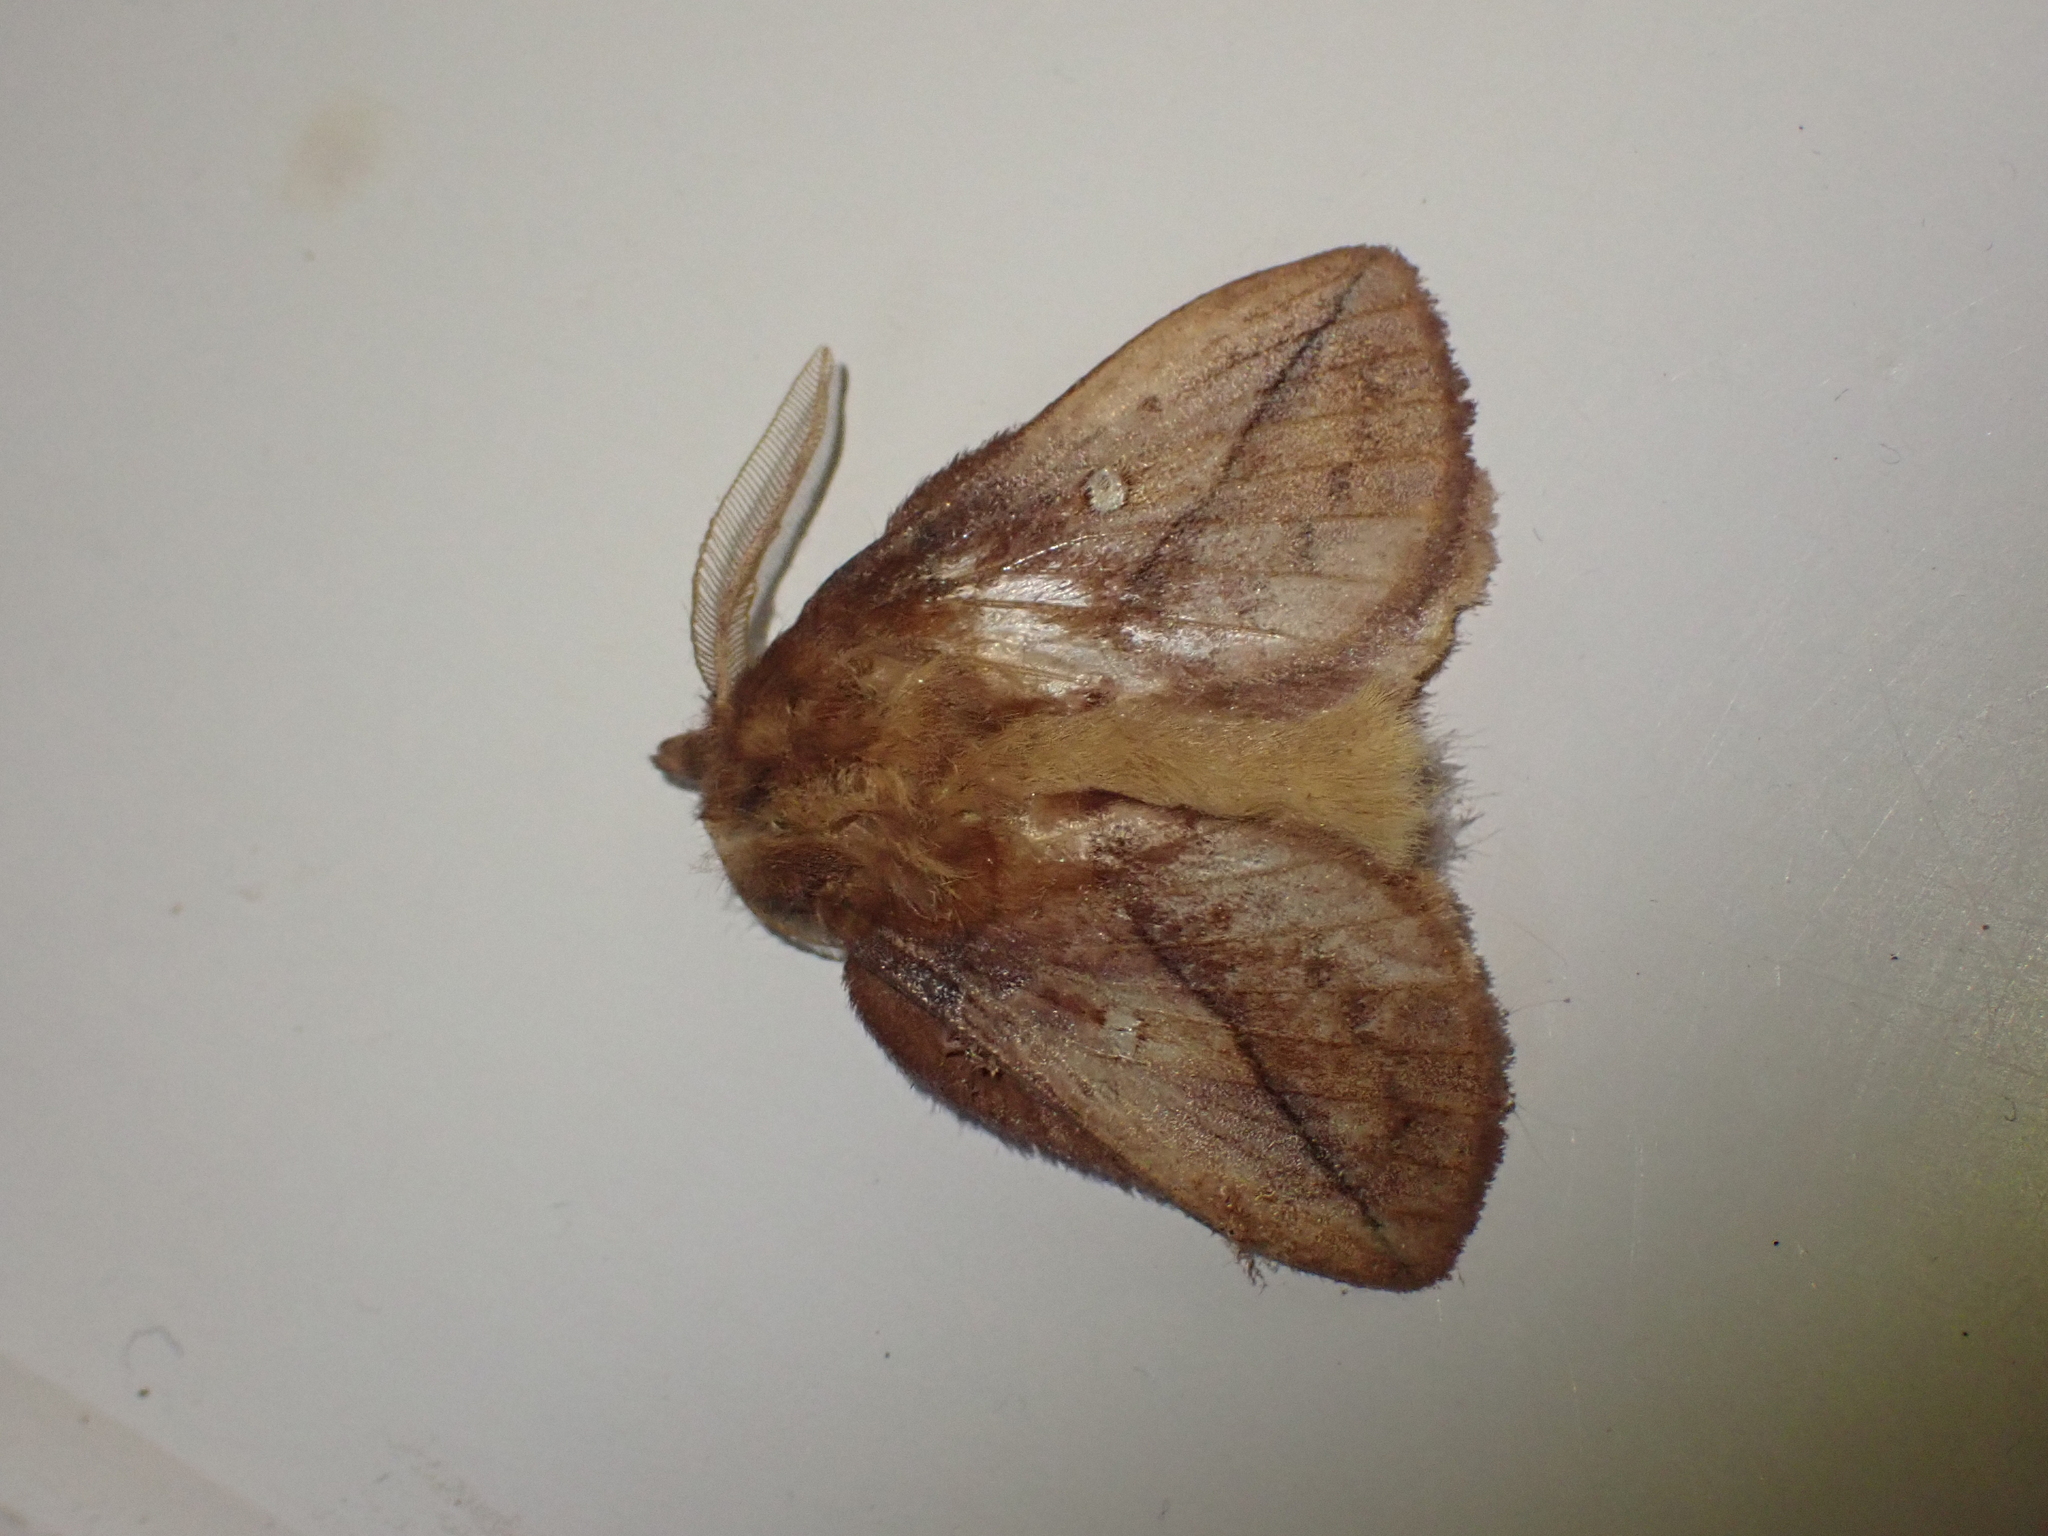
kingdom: Animalia
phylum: Arthropoda
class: Insecta
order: Lepidoptera
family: Lasiocampidae
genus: Euthrix
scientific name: Euthrix potatoria
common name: Drinker
